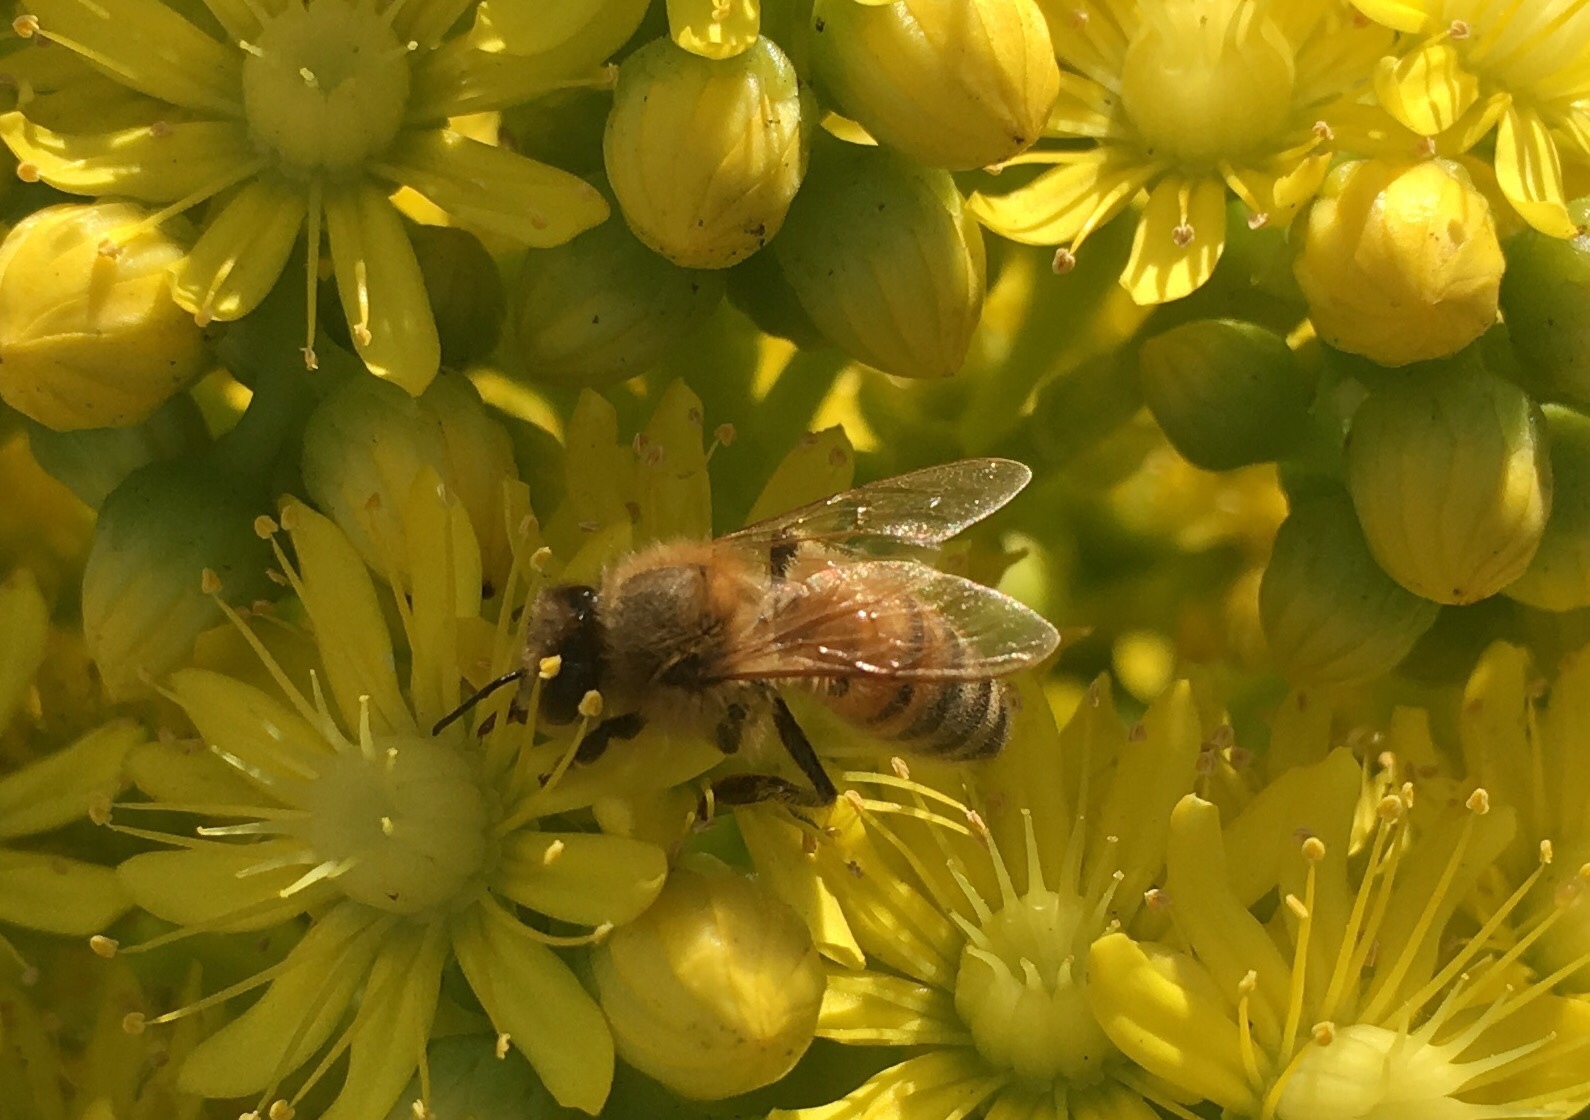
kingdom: Animalia
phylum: Arthropoda
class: Insecta
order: Hymenoptera
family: Apidae
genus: Apis
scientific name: Apis mellifera
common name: Honey bee
